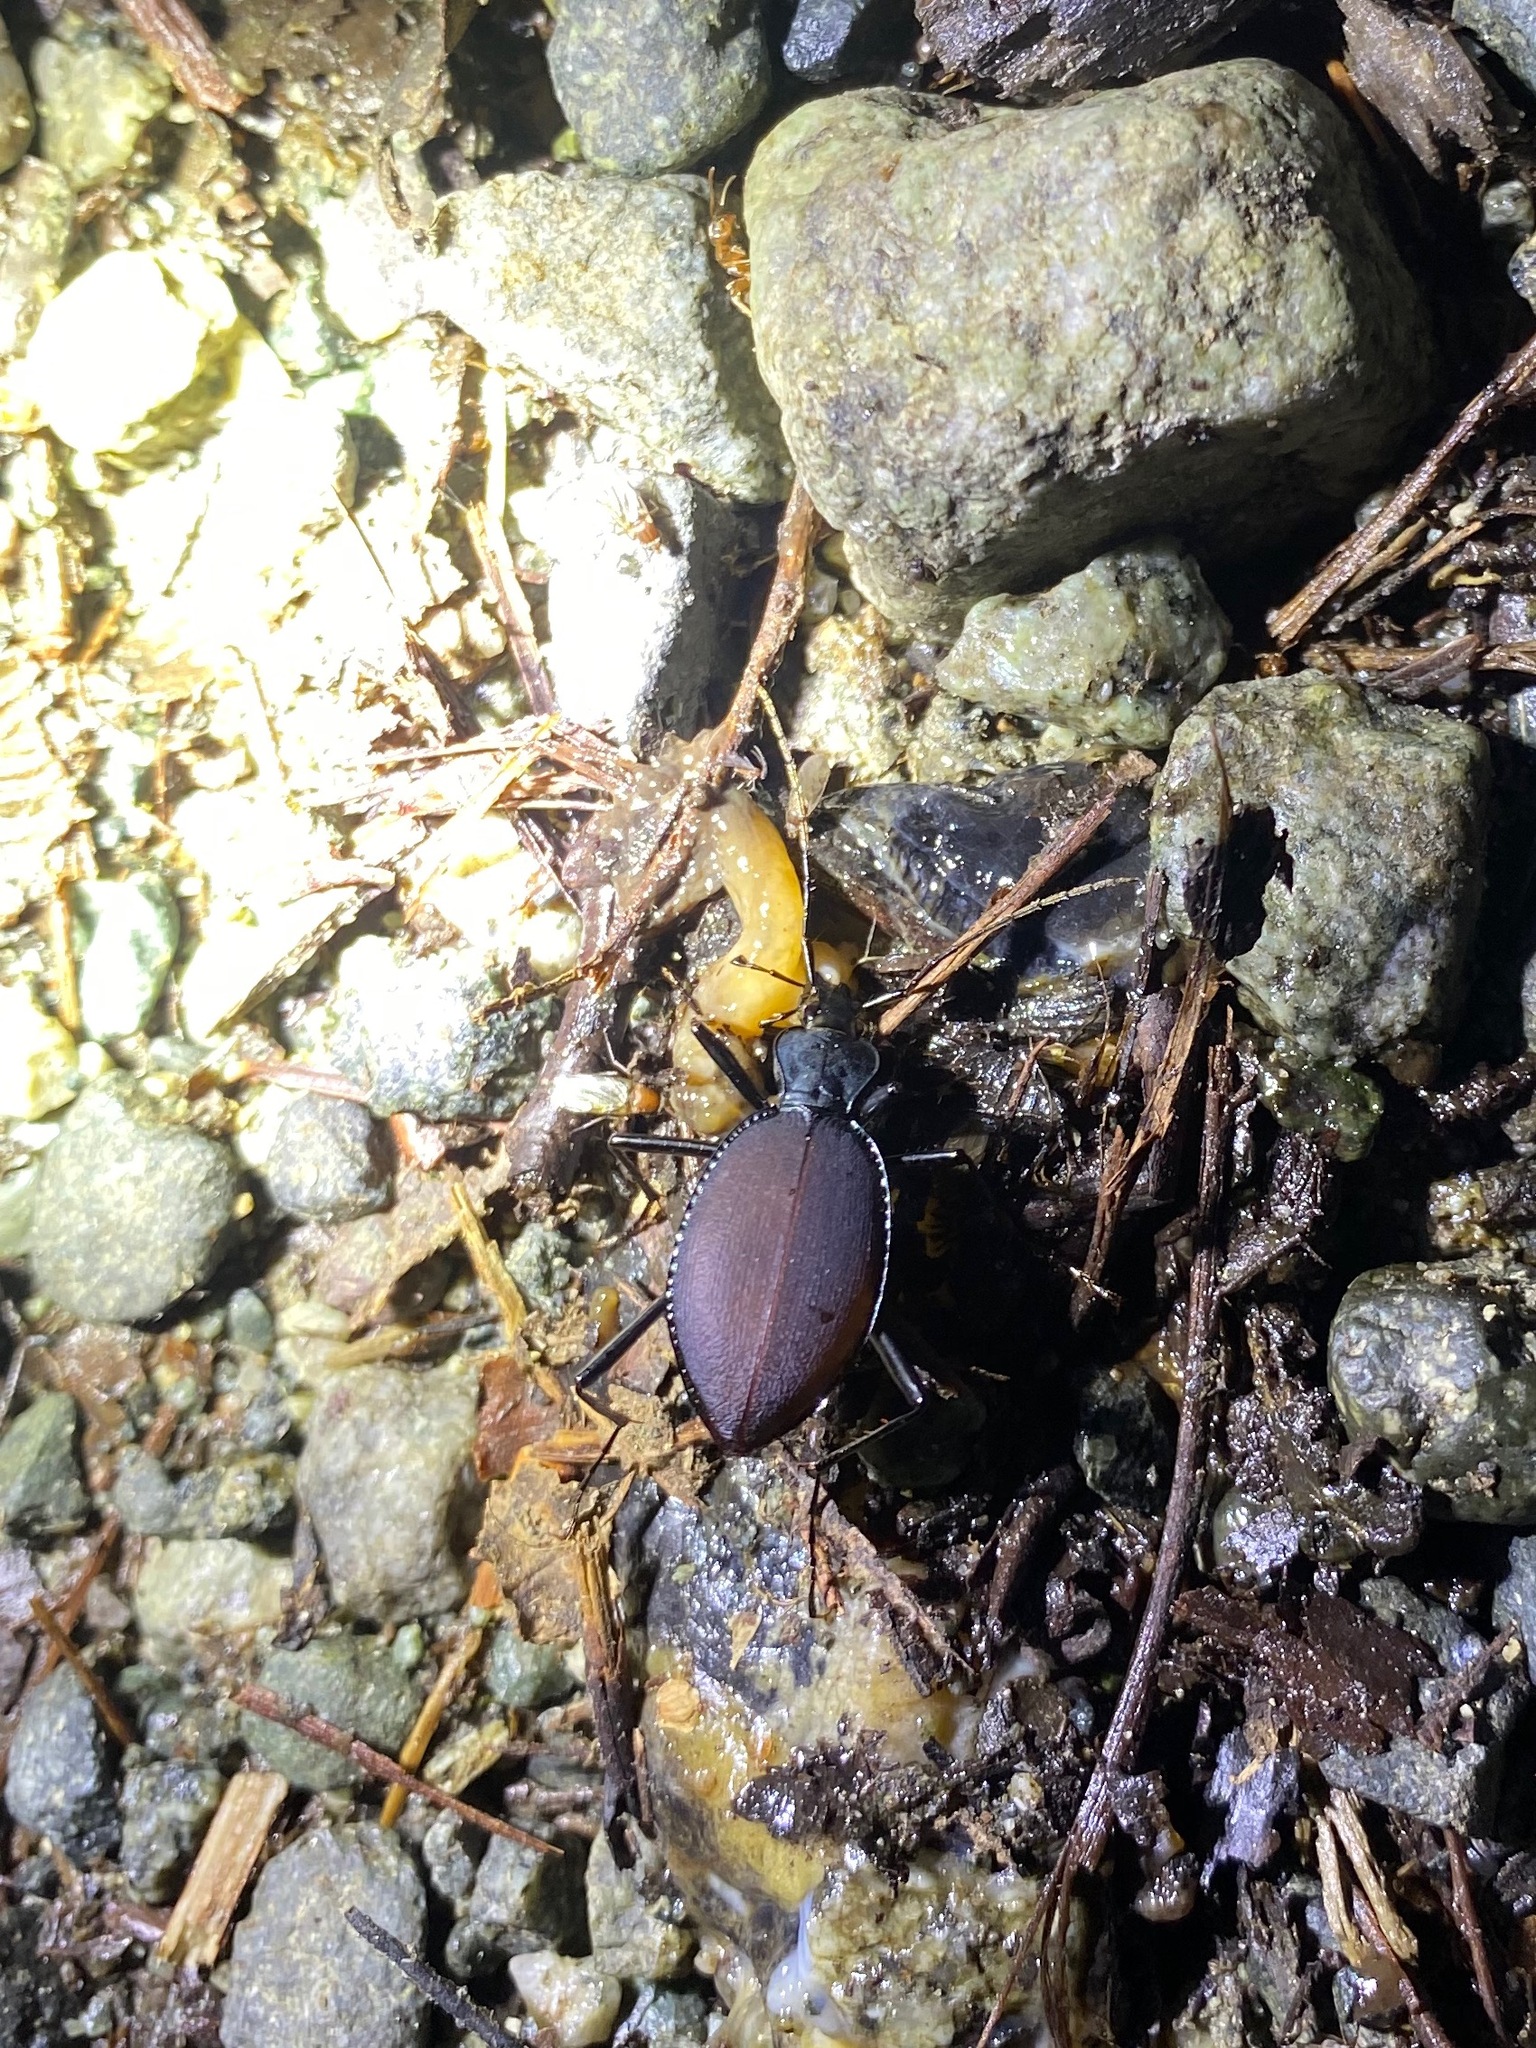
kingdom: Animalia
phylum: Arthropoda
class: Insecta
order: Coleoptera
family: Carabidae
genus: Scaphinotus
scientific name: Scaphinotus angusticollis
